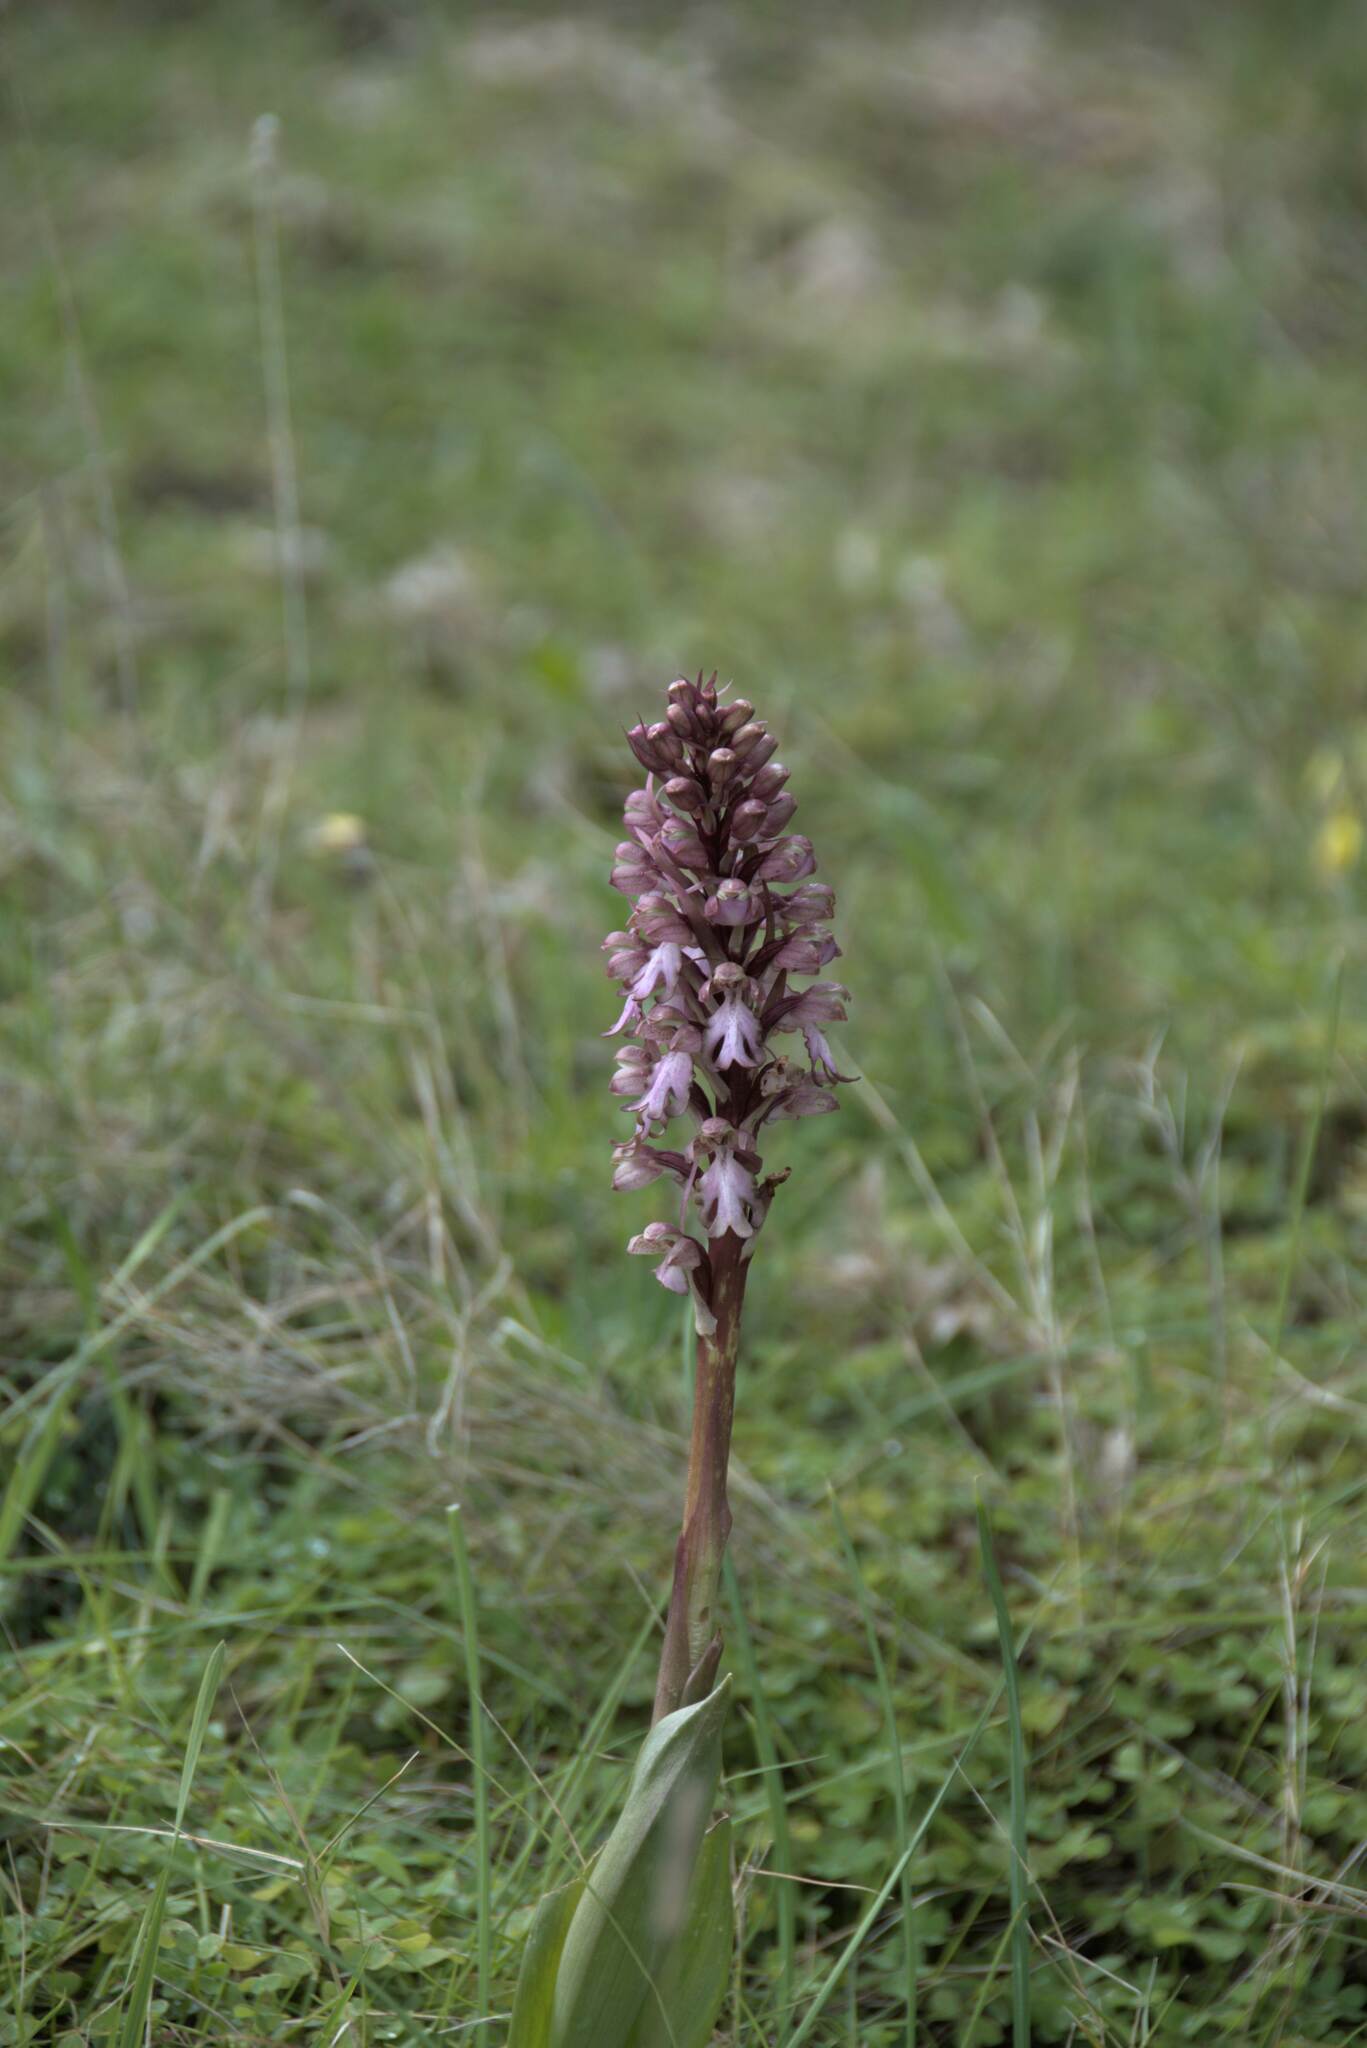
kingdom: Plantae
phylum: Tracheophyta
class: Liliopsida
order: Asparagales
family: Orchidaceae
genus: Himantoglossum
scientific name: Himantoglossum robertianum
